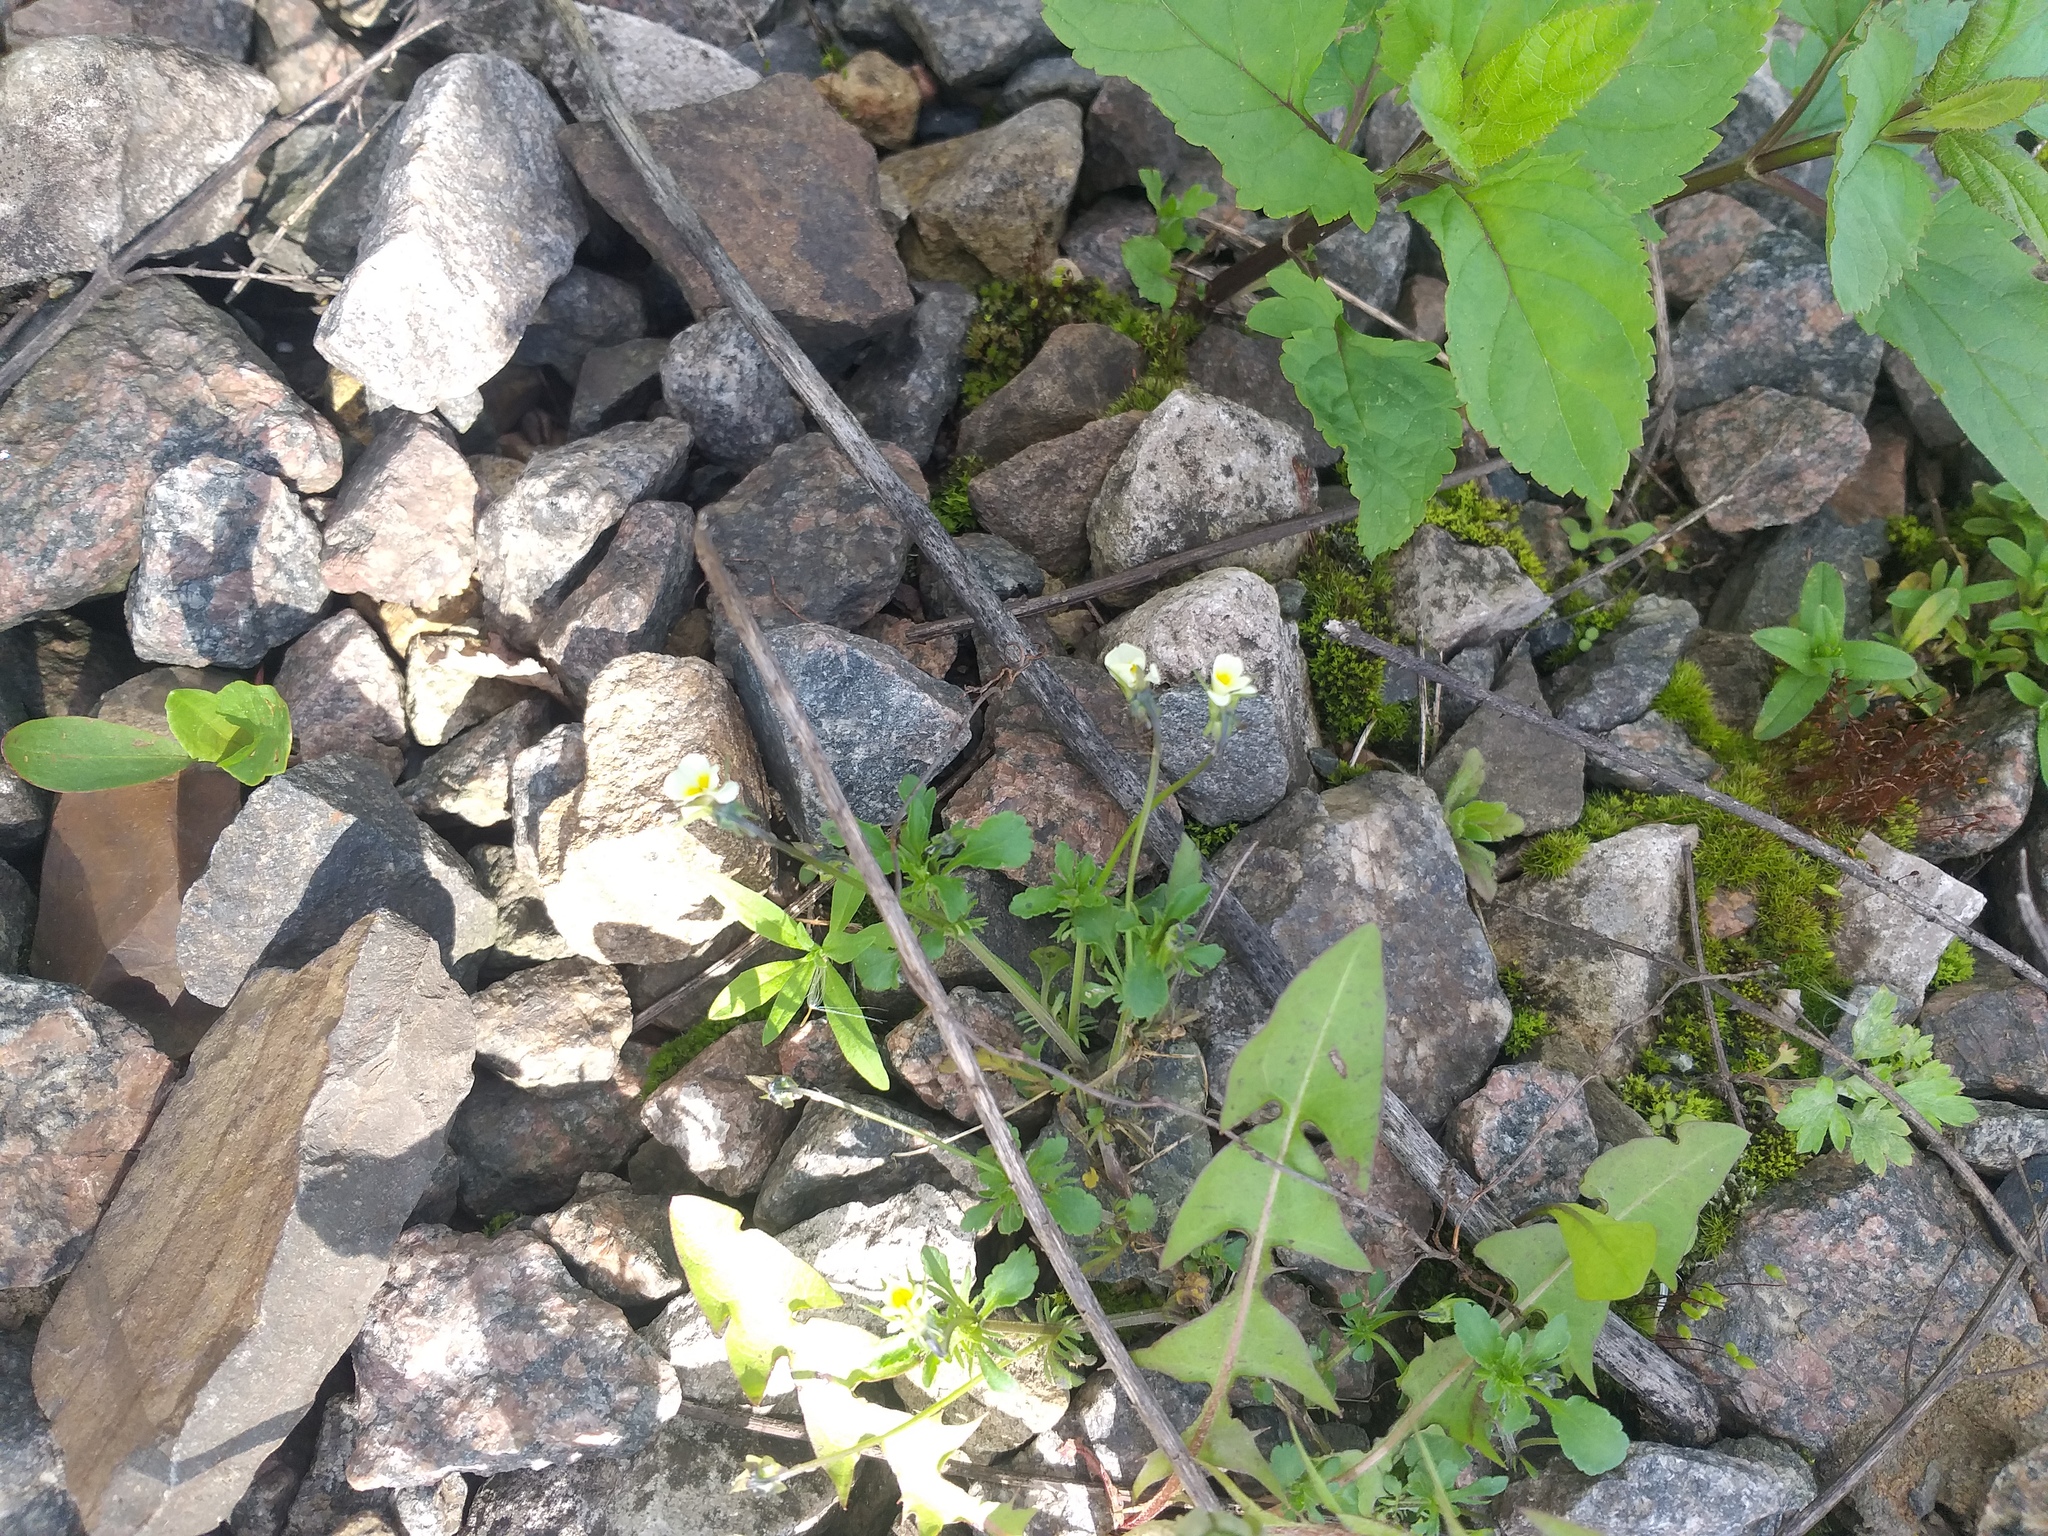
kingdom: Plantae
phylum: Tracheophyta
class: Magnoliopsida
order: Malpighiales
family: Violaceae
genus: Viola
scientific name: Viola arvensis
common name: Field pansy
